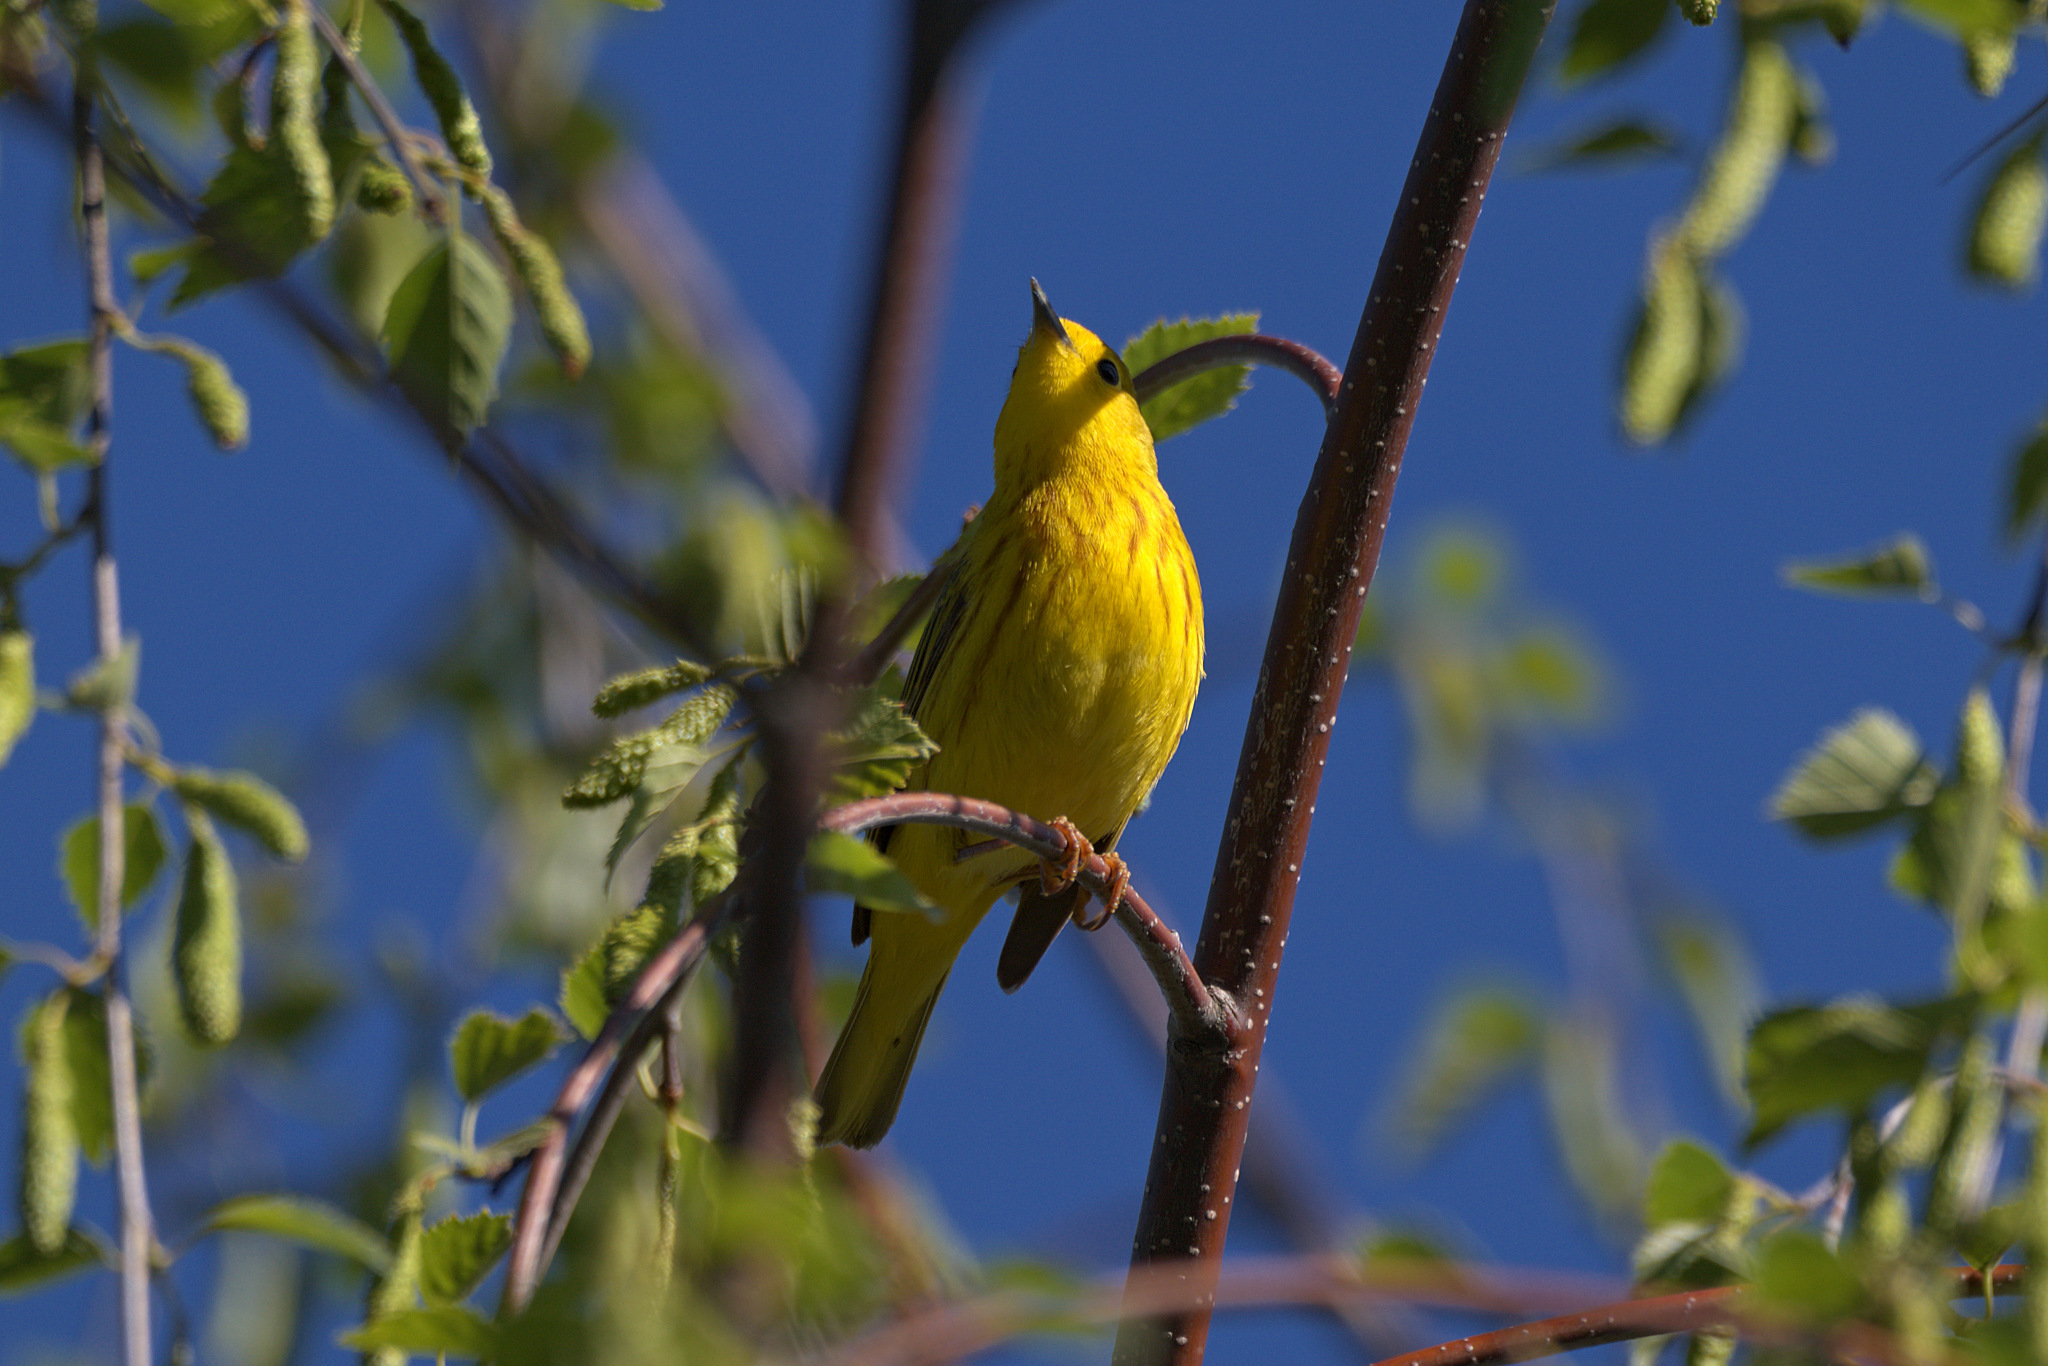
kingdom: Animalia
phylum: Chordata
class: Aves
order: Passeriformes
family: Parulidae
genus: Setophaga
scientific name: Setophaga petechia
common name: Yellow warbler
